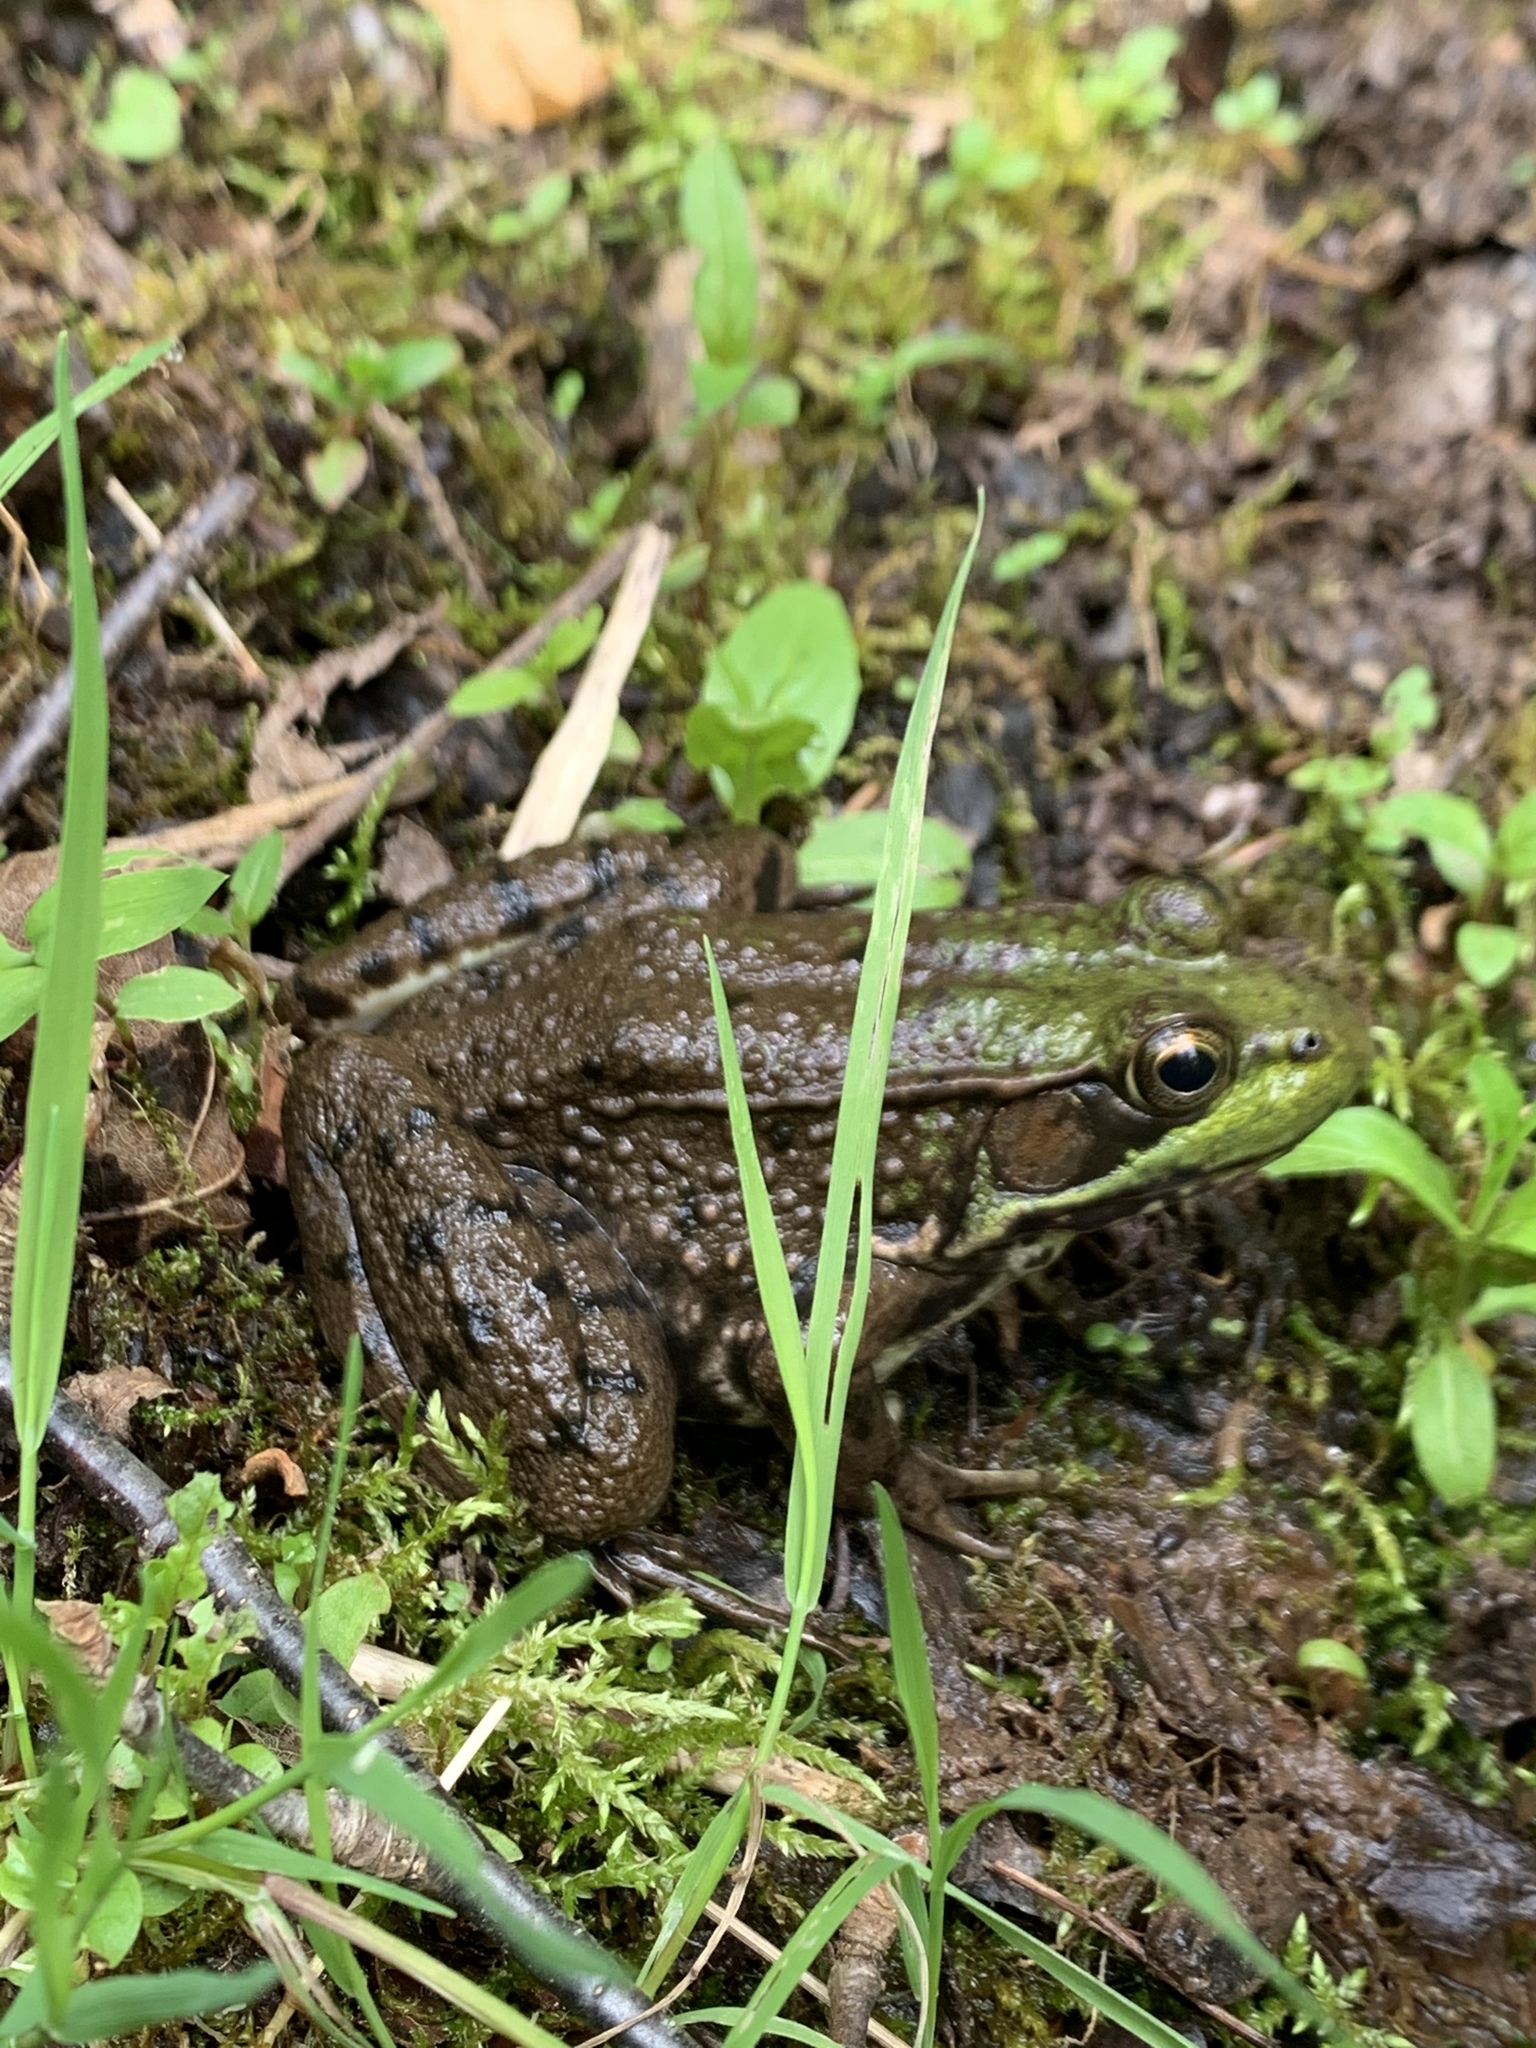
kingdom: Animalia
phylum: Chordata
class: Amphibia
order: Anura
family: Ranidae
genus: Lithobates
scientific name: Lithobates clamitans
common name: Green frog
